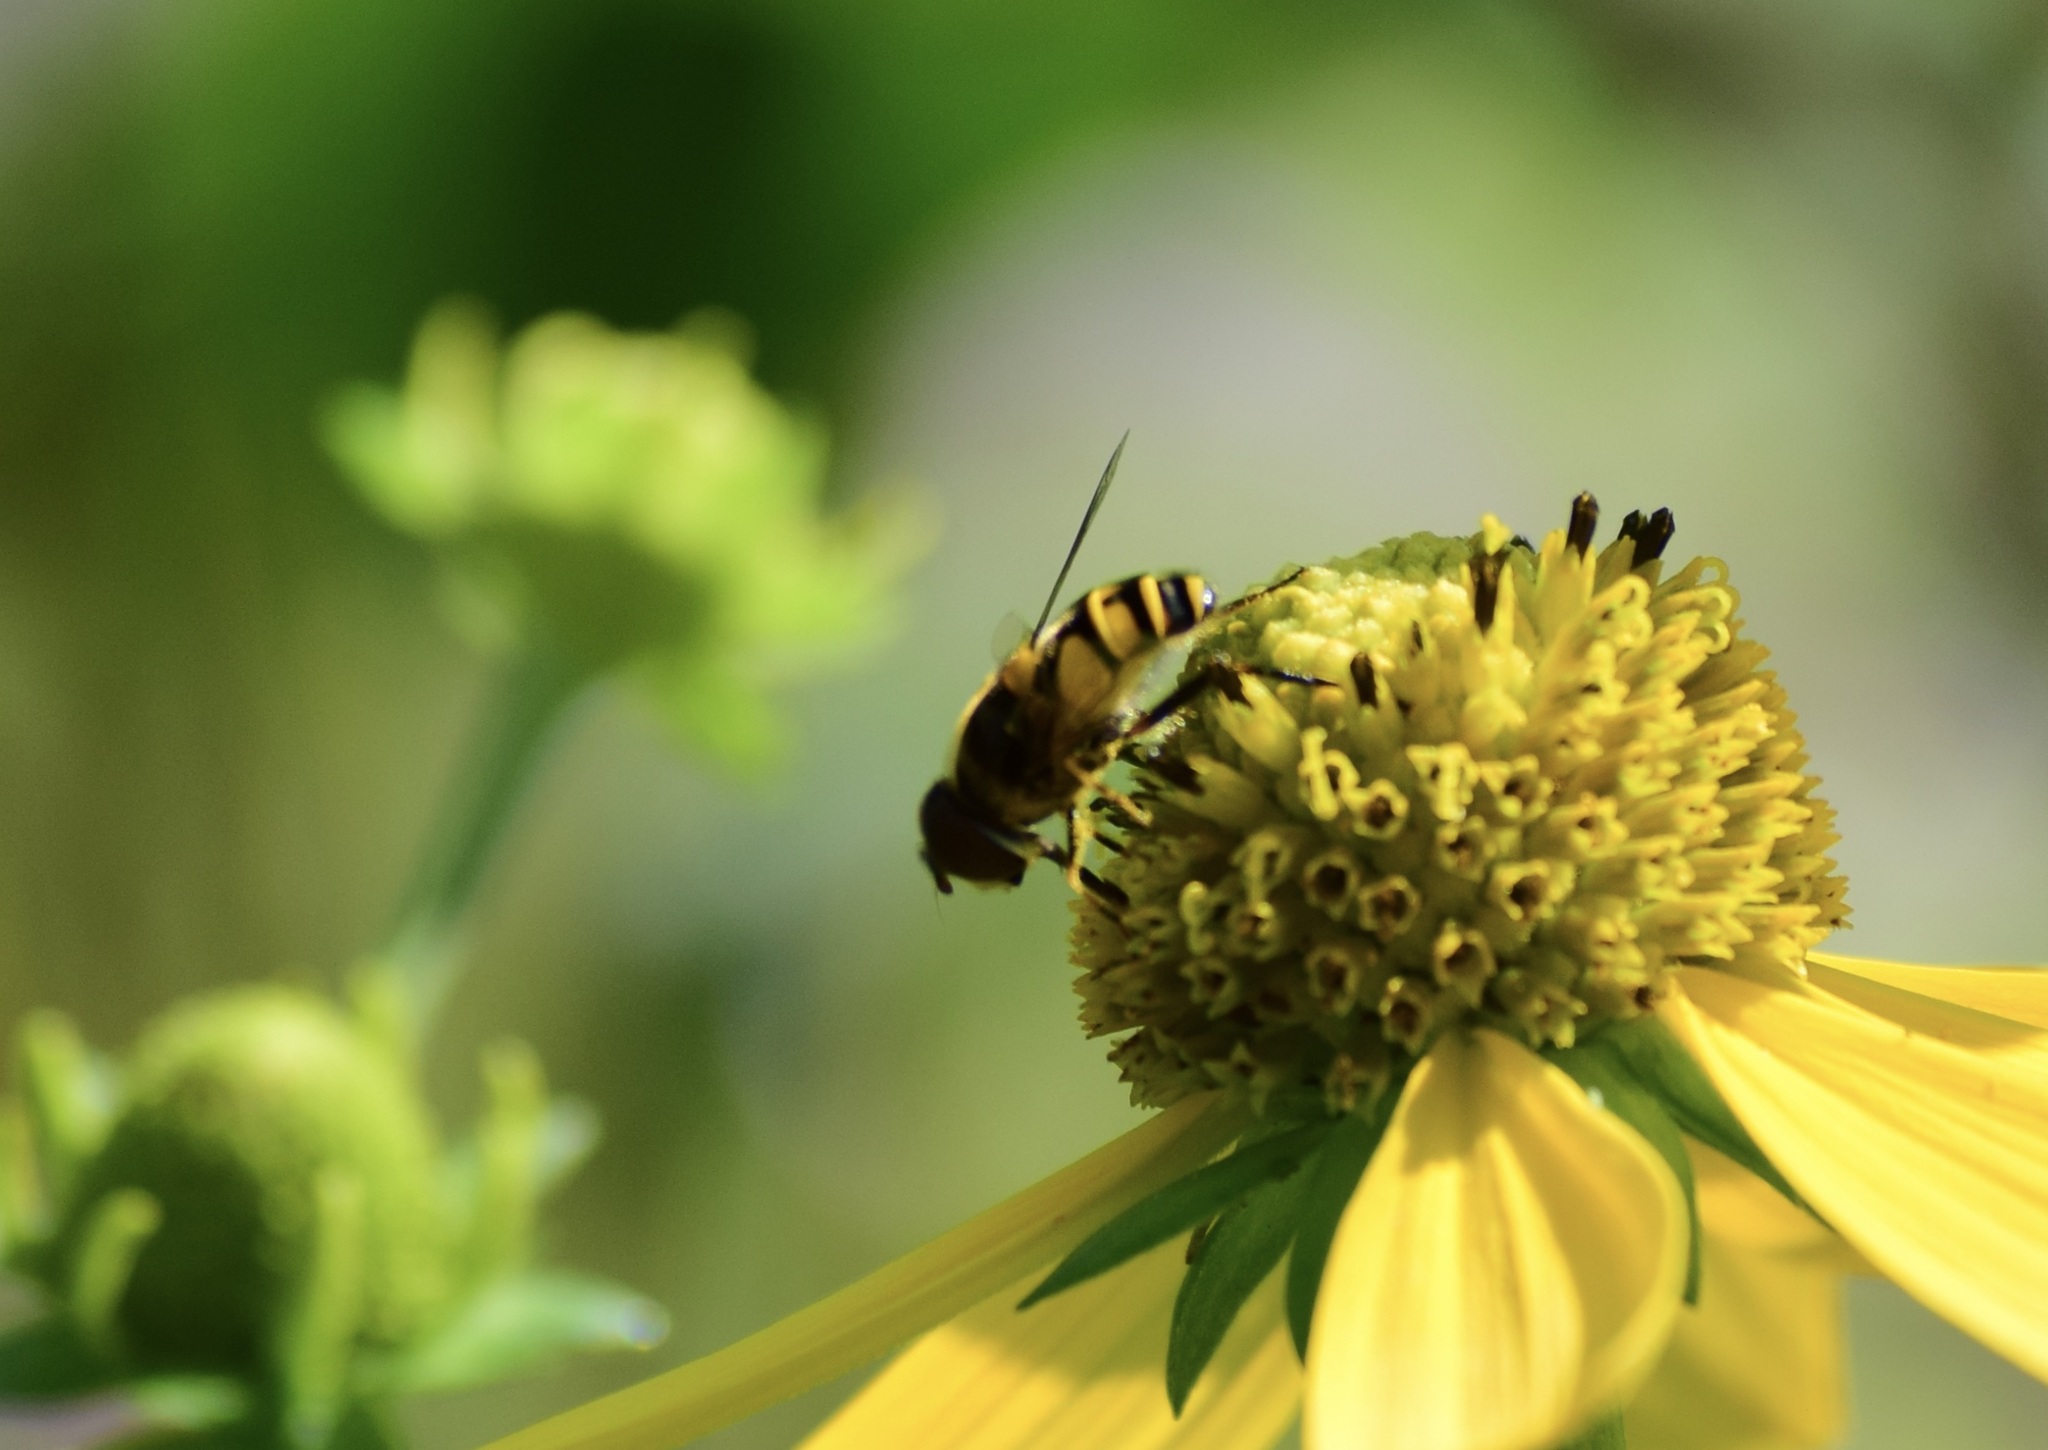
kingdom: Animalia
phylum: Arthropoda
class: Insecta
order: Diptera
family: Syrphidae
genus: Eristalis
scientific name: Eristalis transversa
